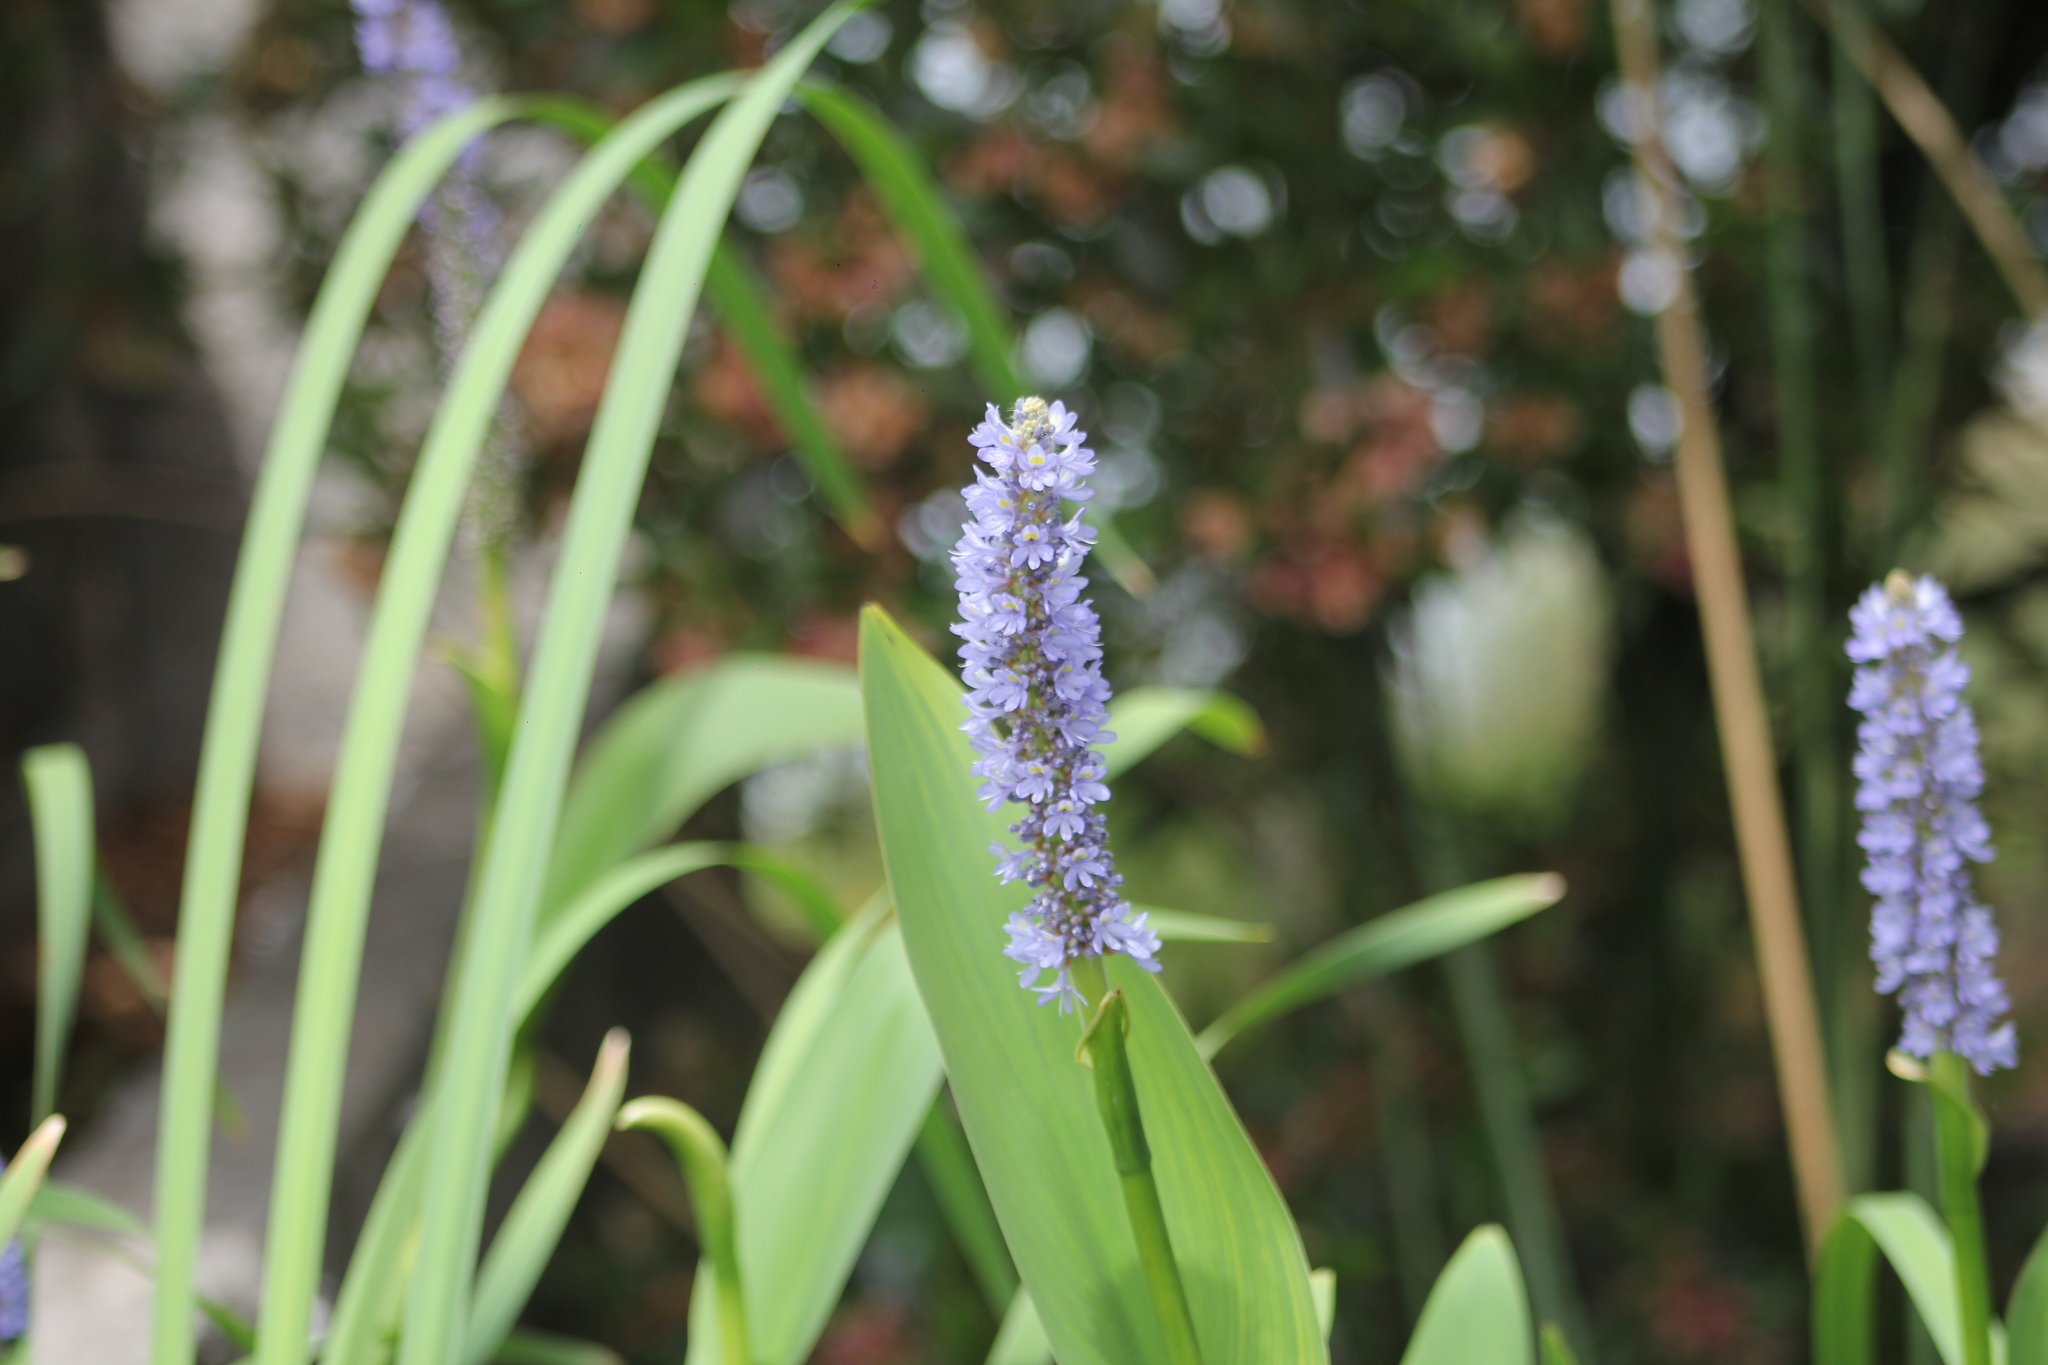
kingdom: Plantae
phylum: Tracheophyta
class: Liliopsida
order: Commelinales
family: Pontederiaceae
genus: Pontederia
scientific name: Pontederia cordata
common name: Pickerelweed
